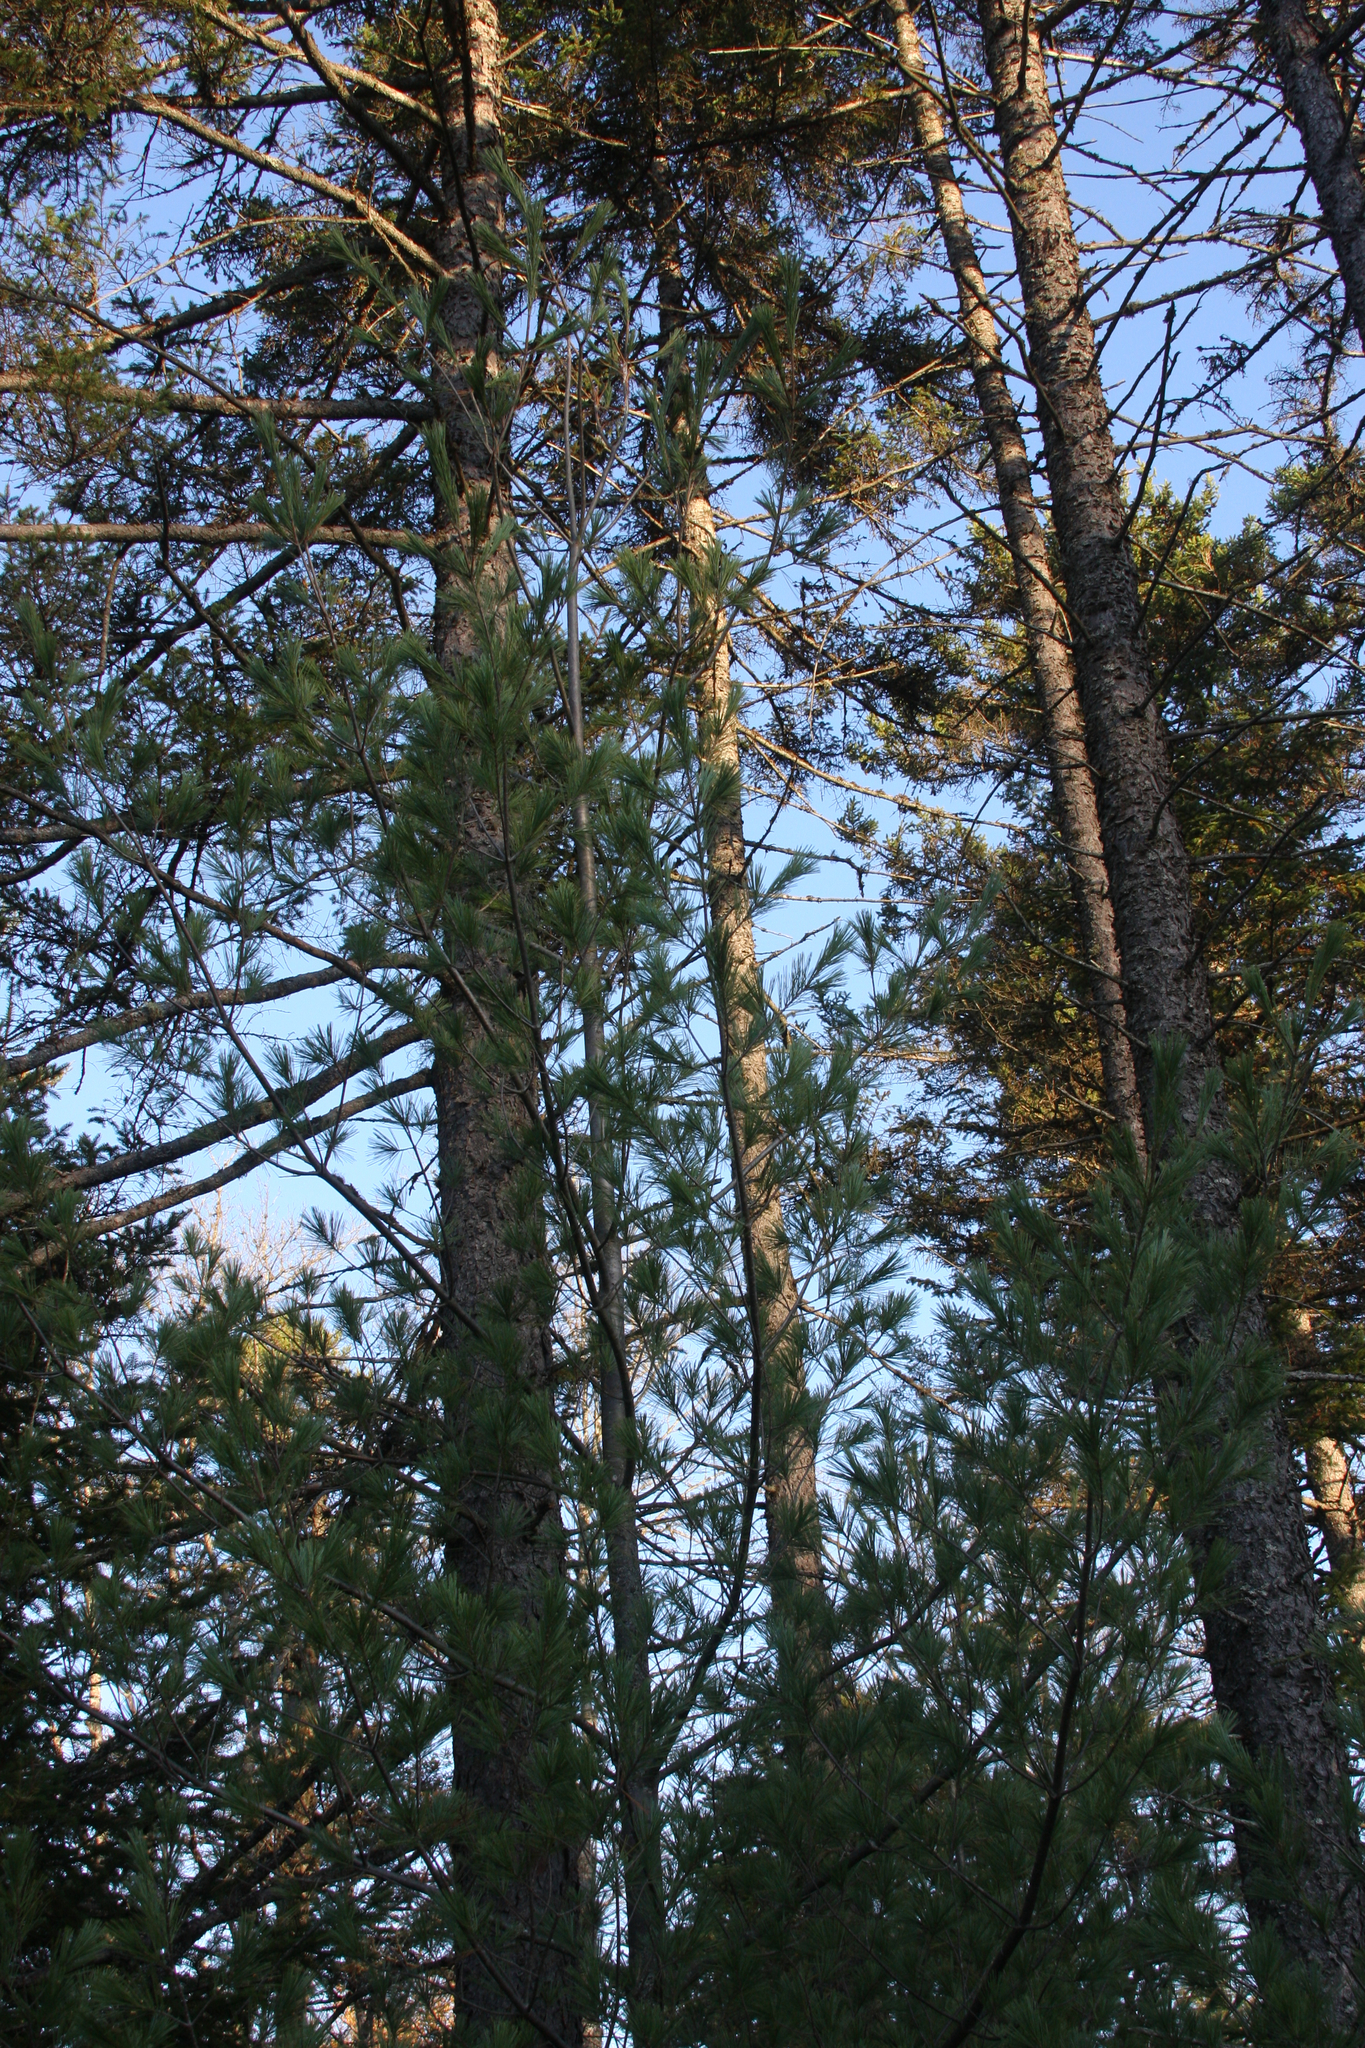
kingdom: Plantae
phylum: Tracheophyta
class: Pinopsida
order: Pinales
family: Pinaceae
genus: Pinus
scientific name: Pinus strobus
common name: Weymouth pine
